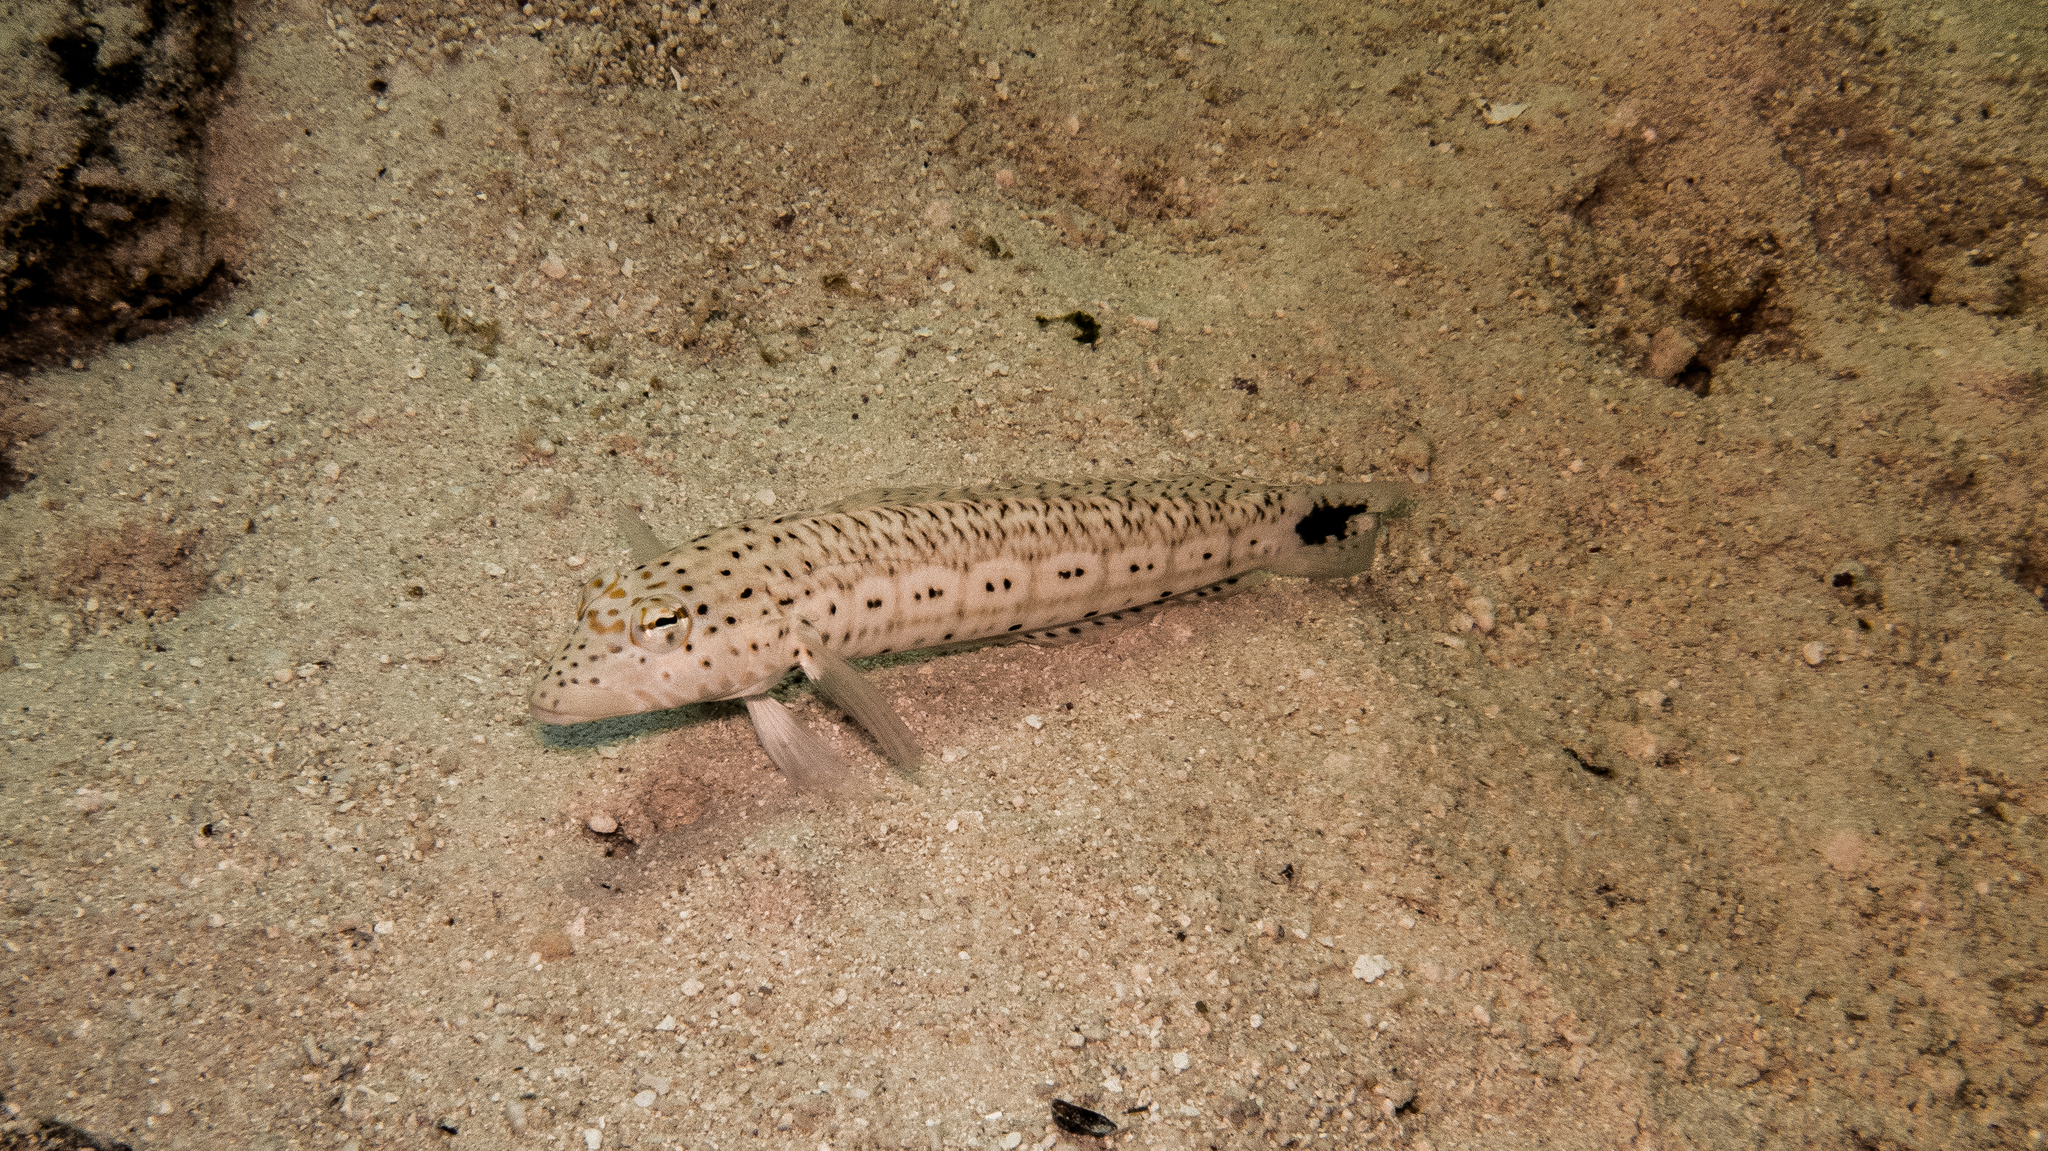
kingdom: Animalia
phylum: Chordata
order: Perciformes
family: Pinguipedidae
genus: Parapercis
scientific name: Parapercis queenslandica
